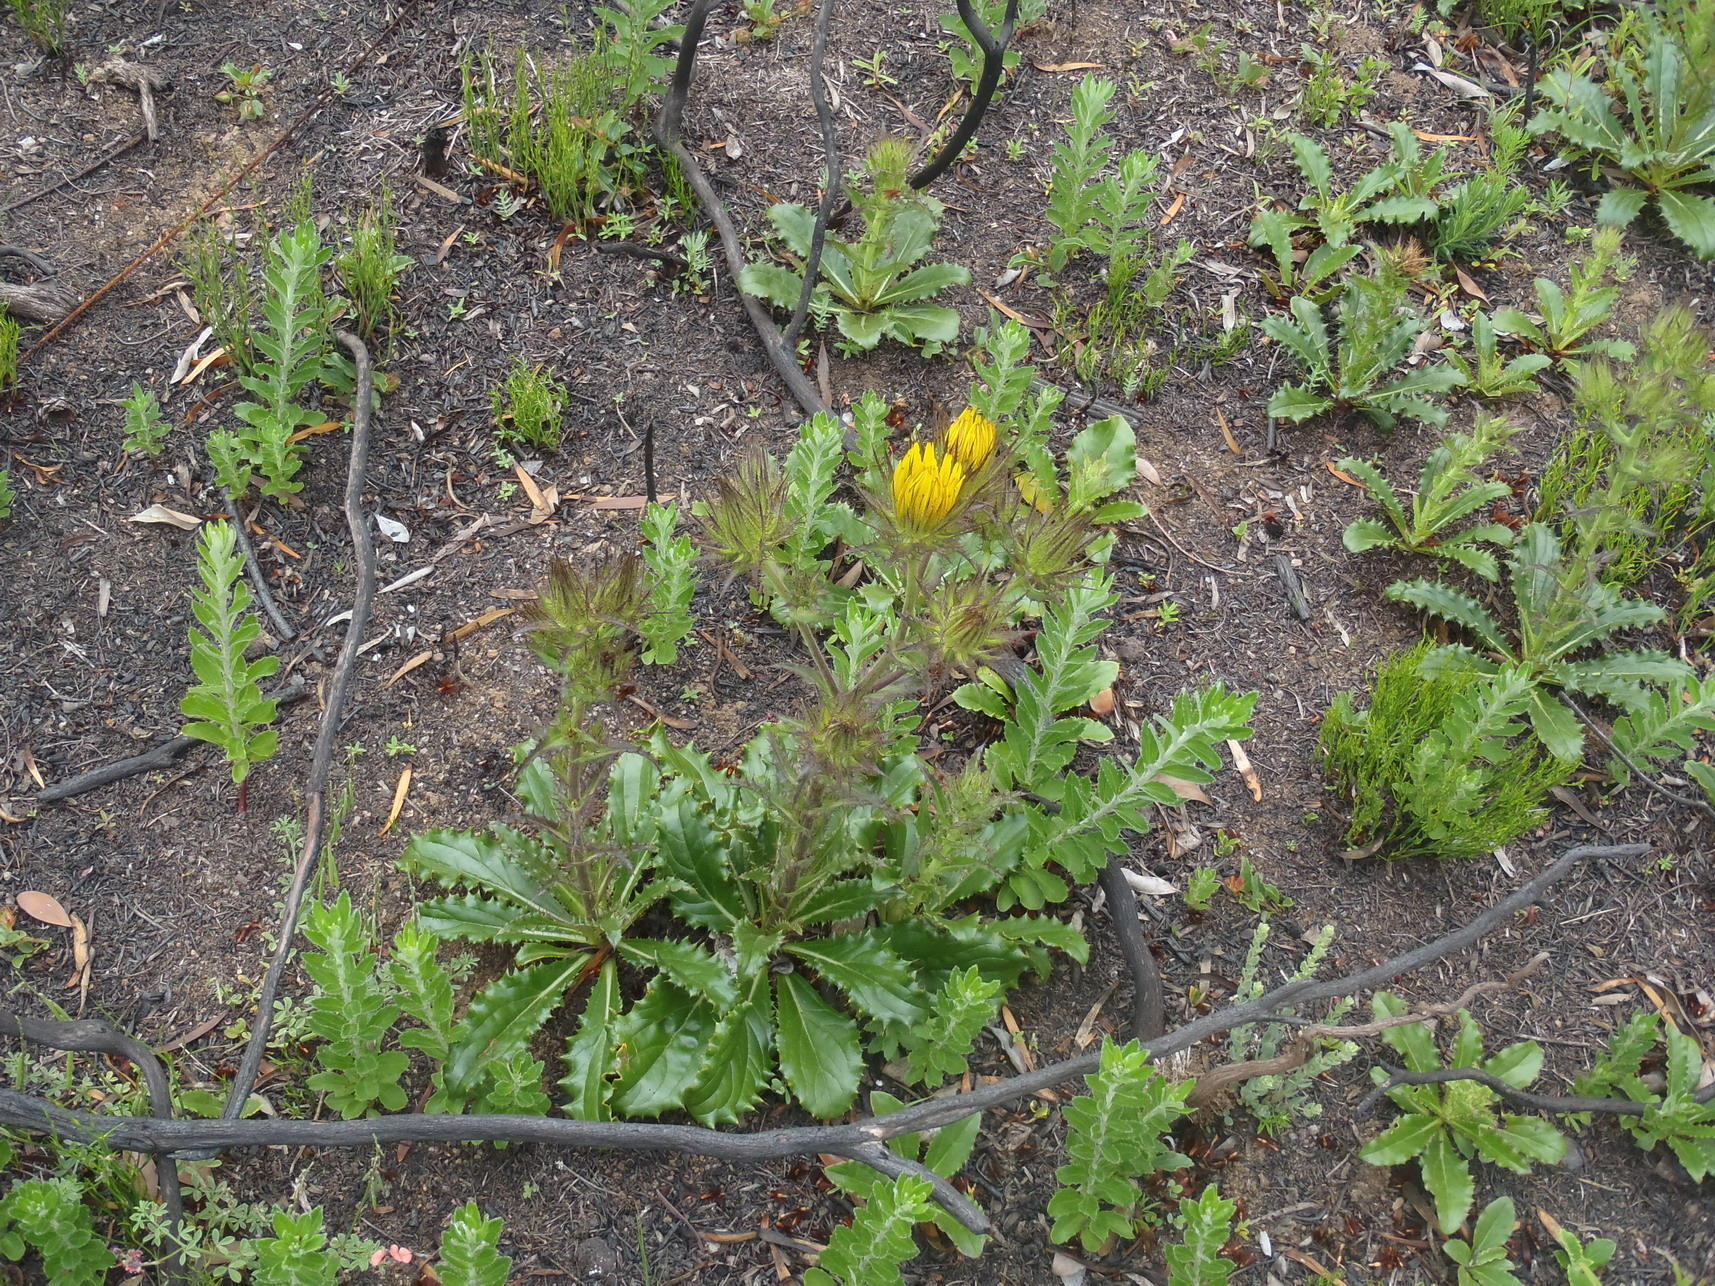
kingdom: Plantae
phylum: Tracheophyta
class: Magnoliopsida
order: Asterales
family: Asteraceae
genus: Berkheya
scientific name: Berkheya carlinoides
